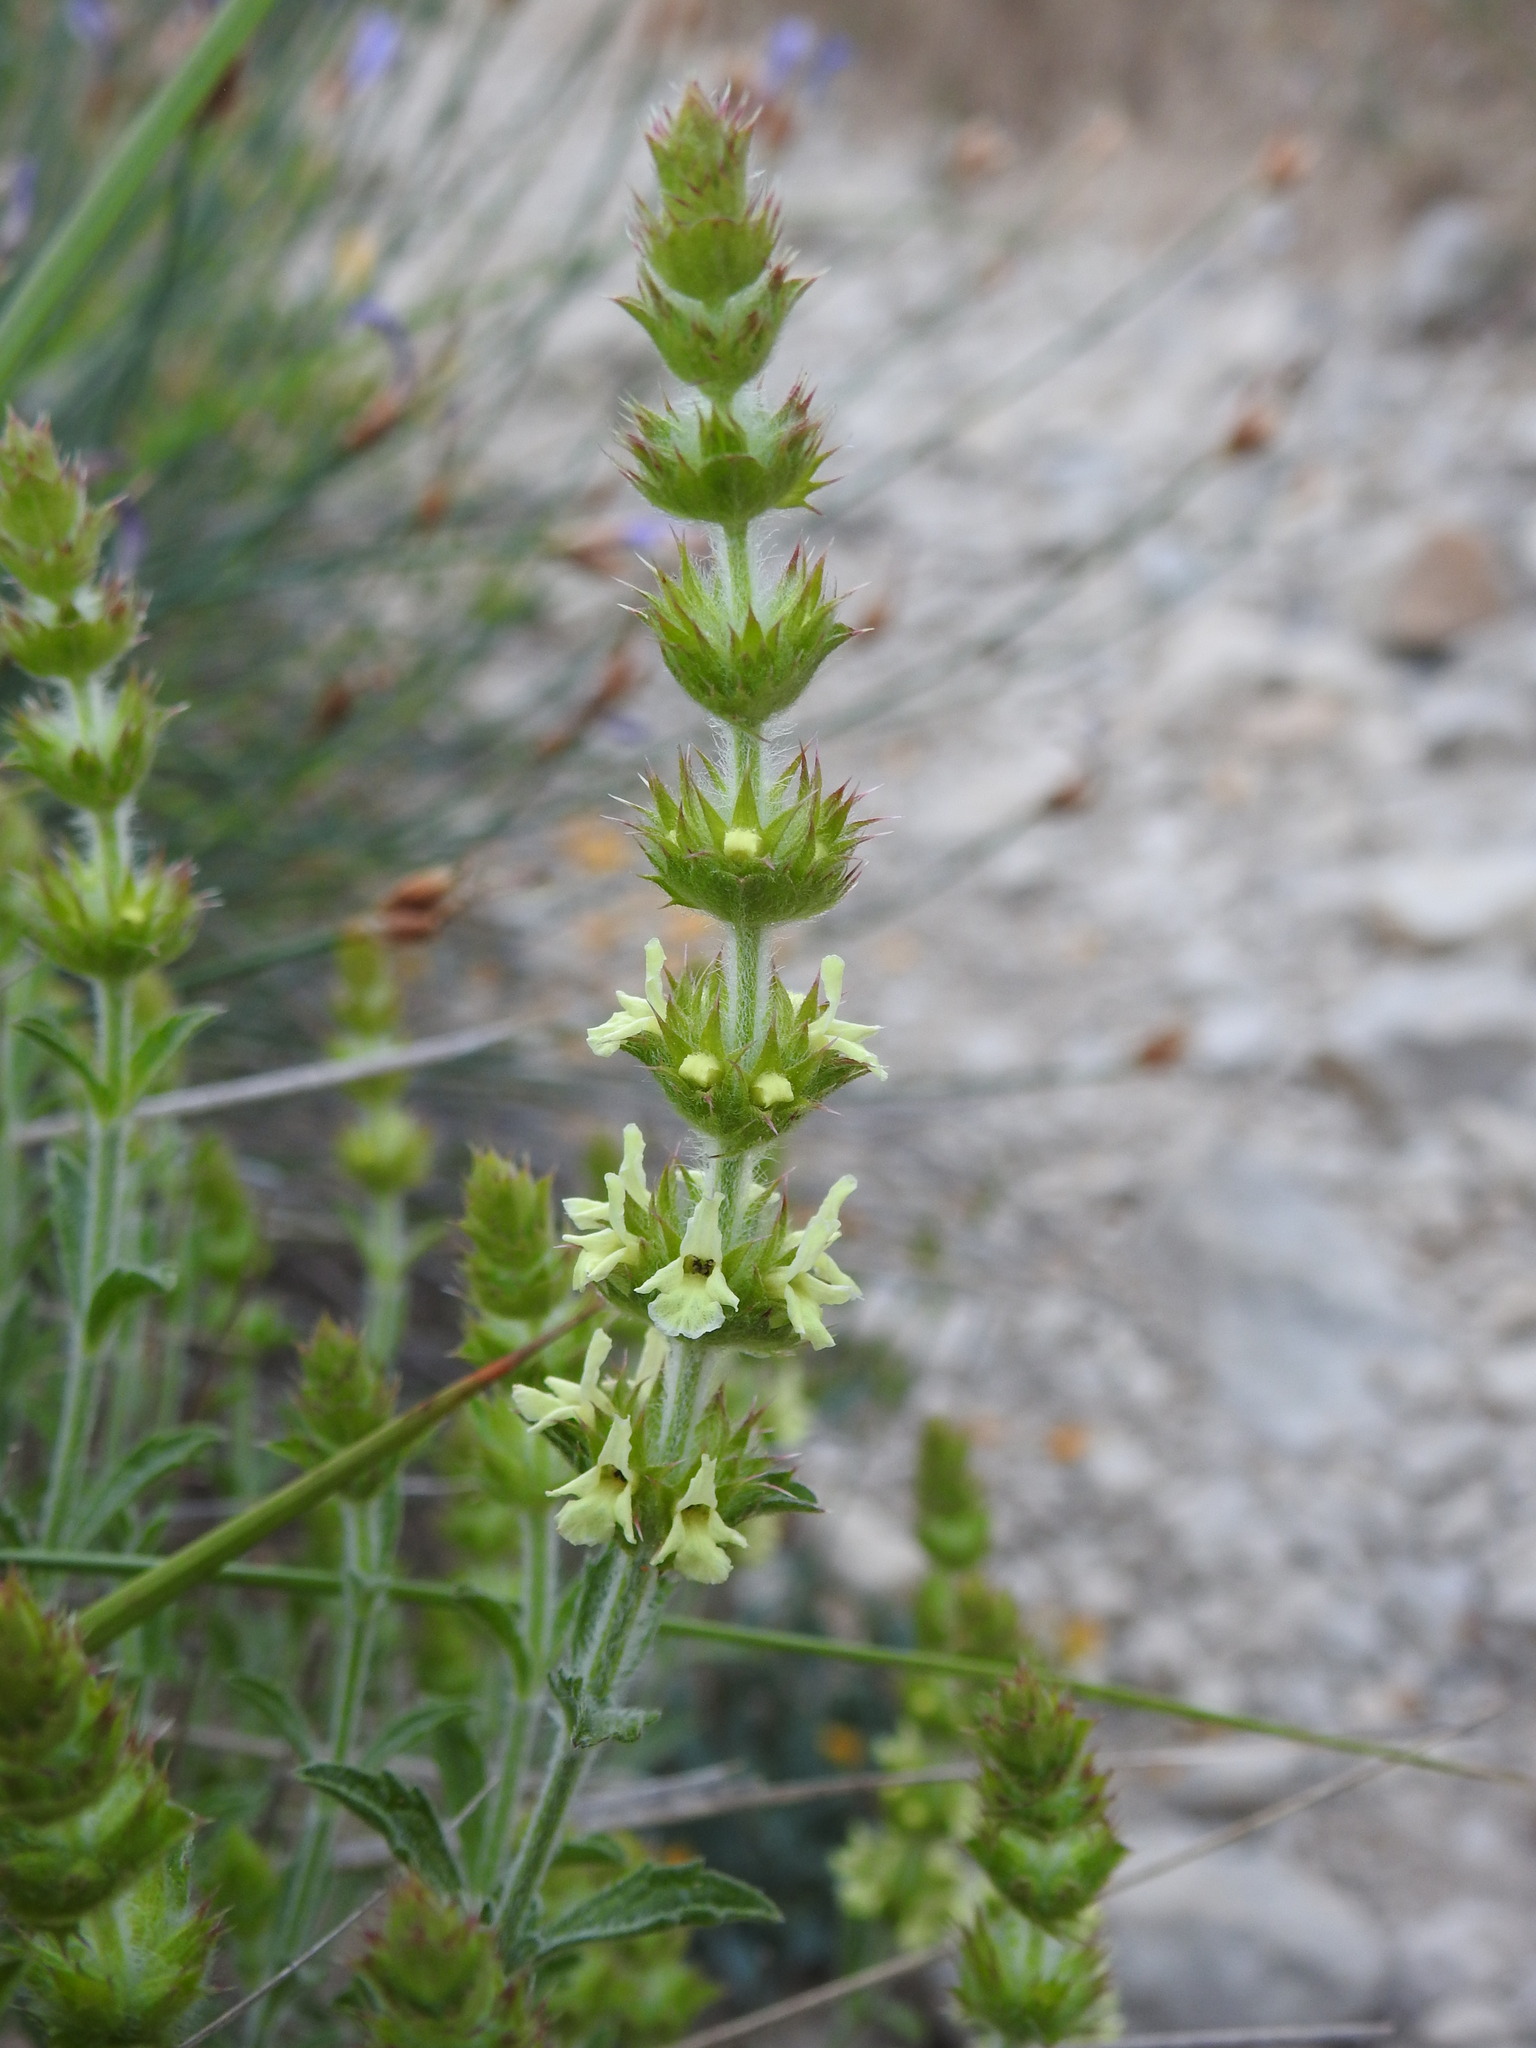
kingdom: Plantae
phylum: Tracheophyta
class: Magnoliopsida
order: Lamiales
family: Lamiaceae
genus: Sideritis
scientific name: Sideritis fruticulosa
